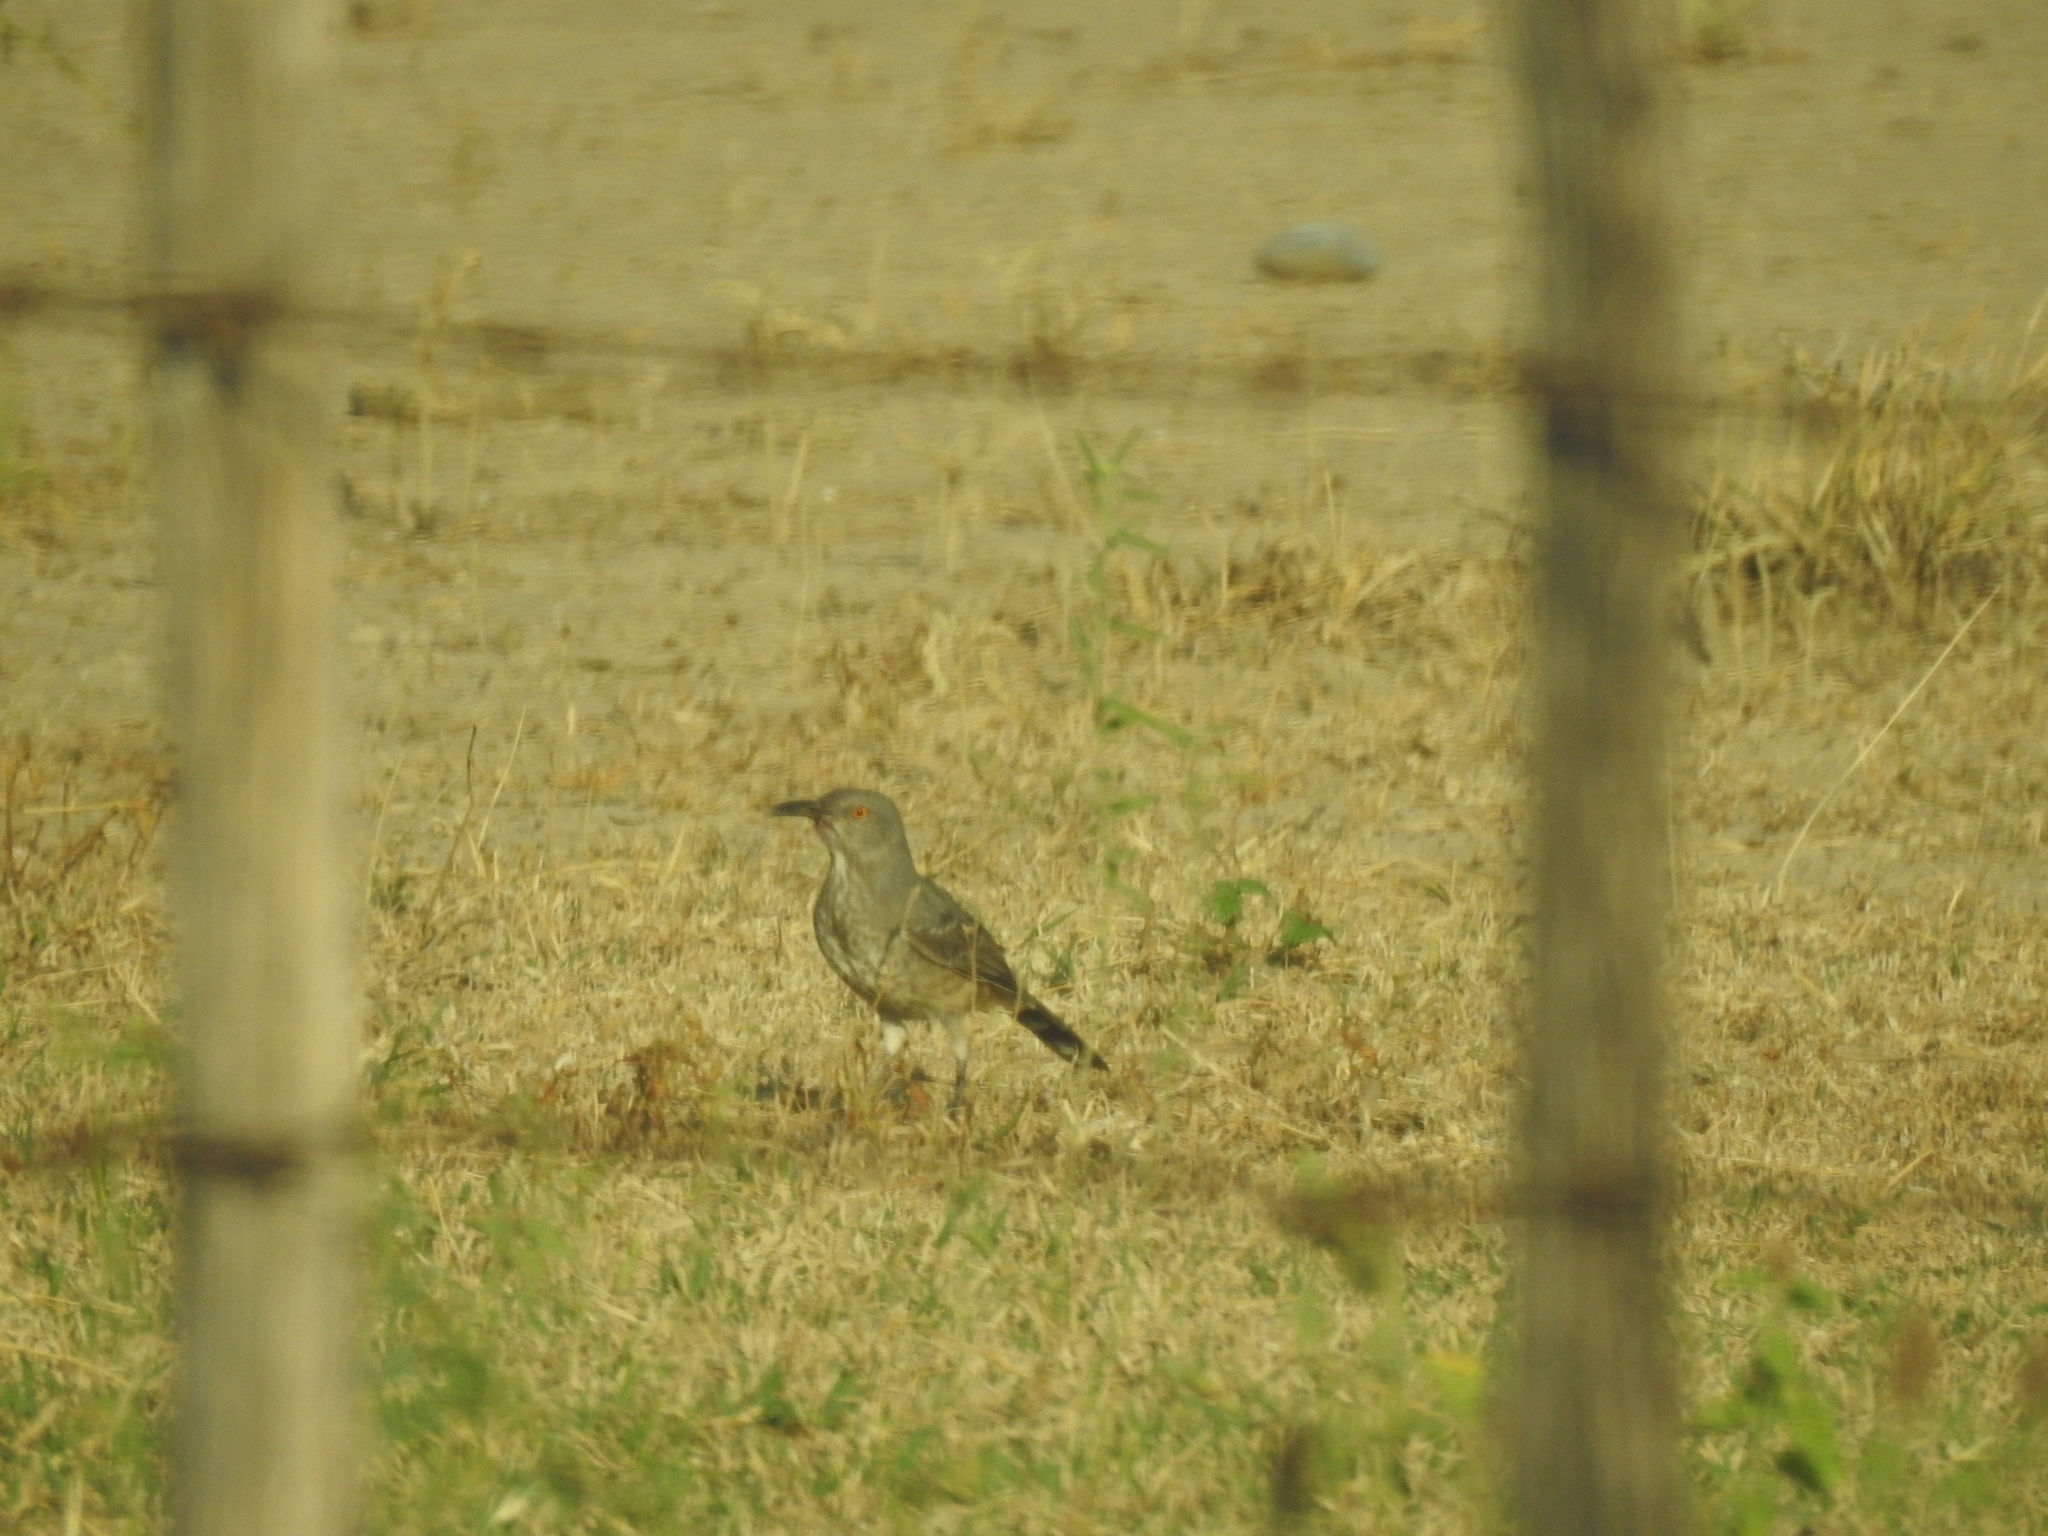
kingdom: Animalia
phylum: Chordata
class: Aves
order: Passeriformes
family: Mimidae
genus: Toxostoma
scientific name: Toxostoma curvirostre
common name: Curve-billed thrasher
